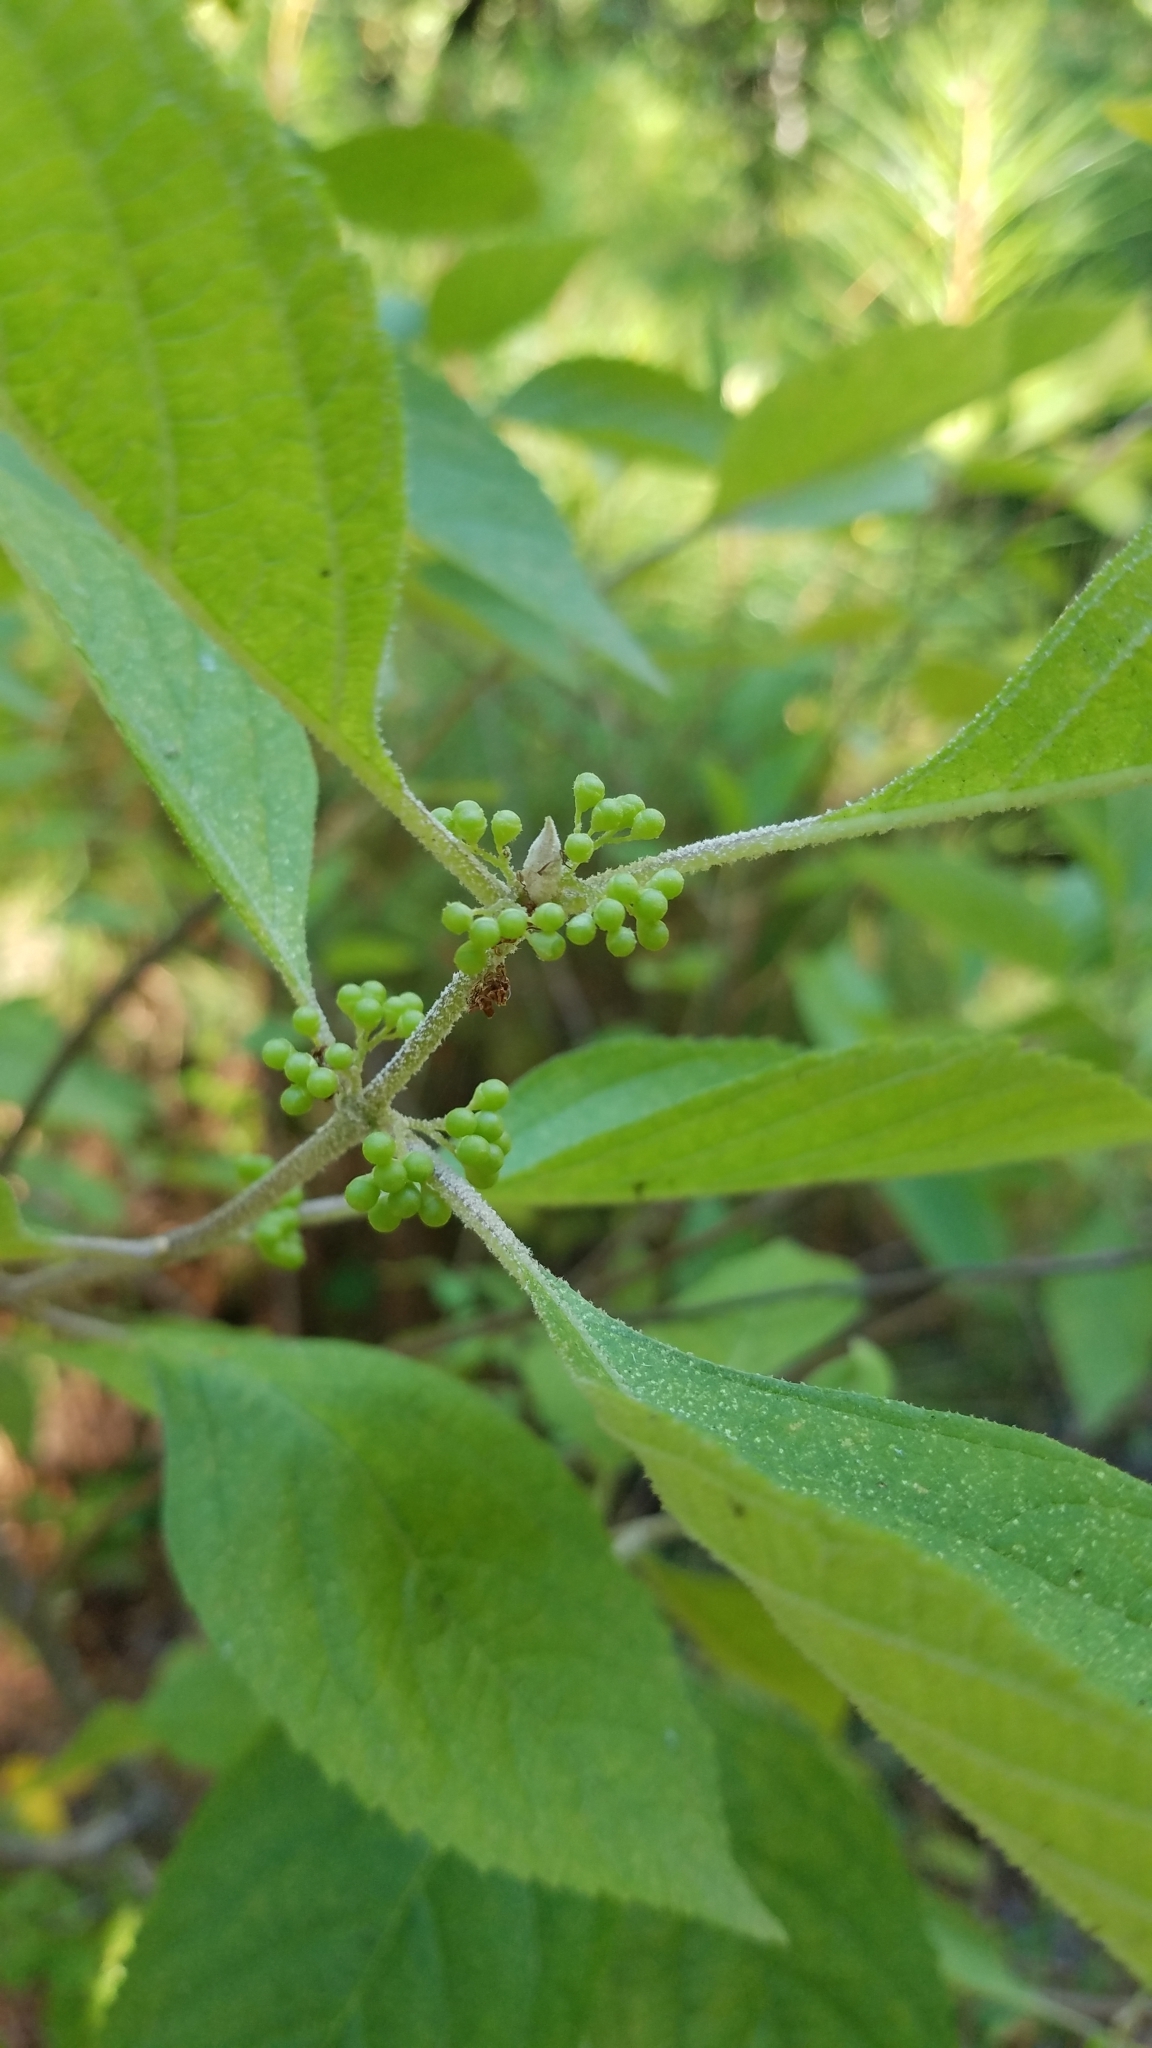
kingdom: Plantae
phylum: Tracheophyta
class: Magnoliopsida
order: Lamiales
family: Lamiaceae
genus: Callicarpa
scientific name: Callicarpa americana
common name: American beautyberry
